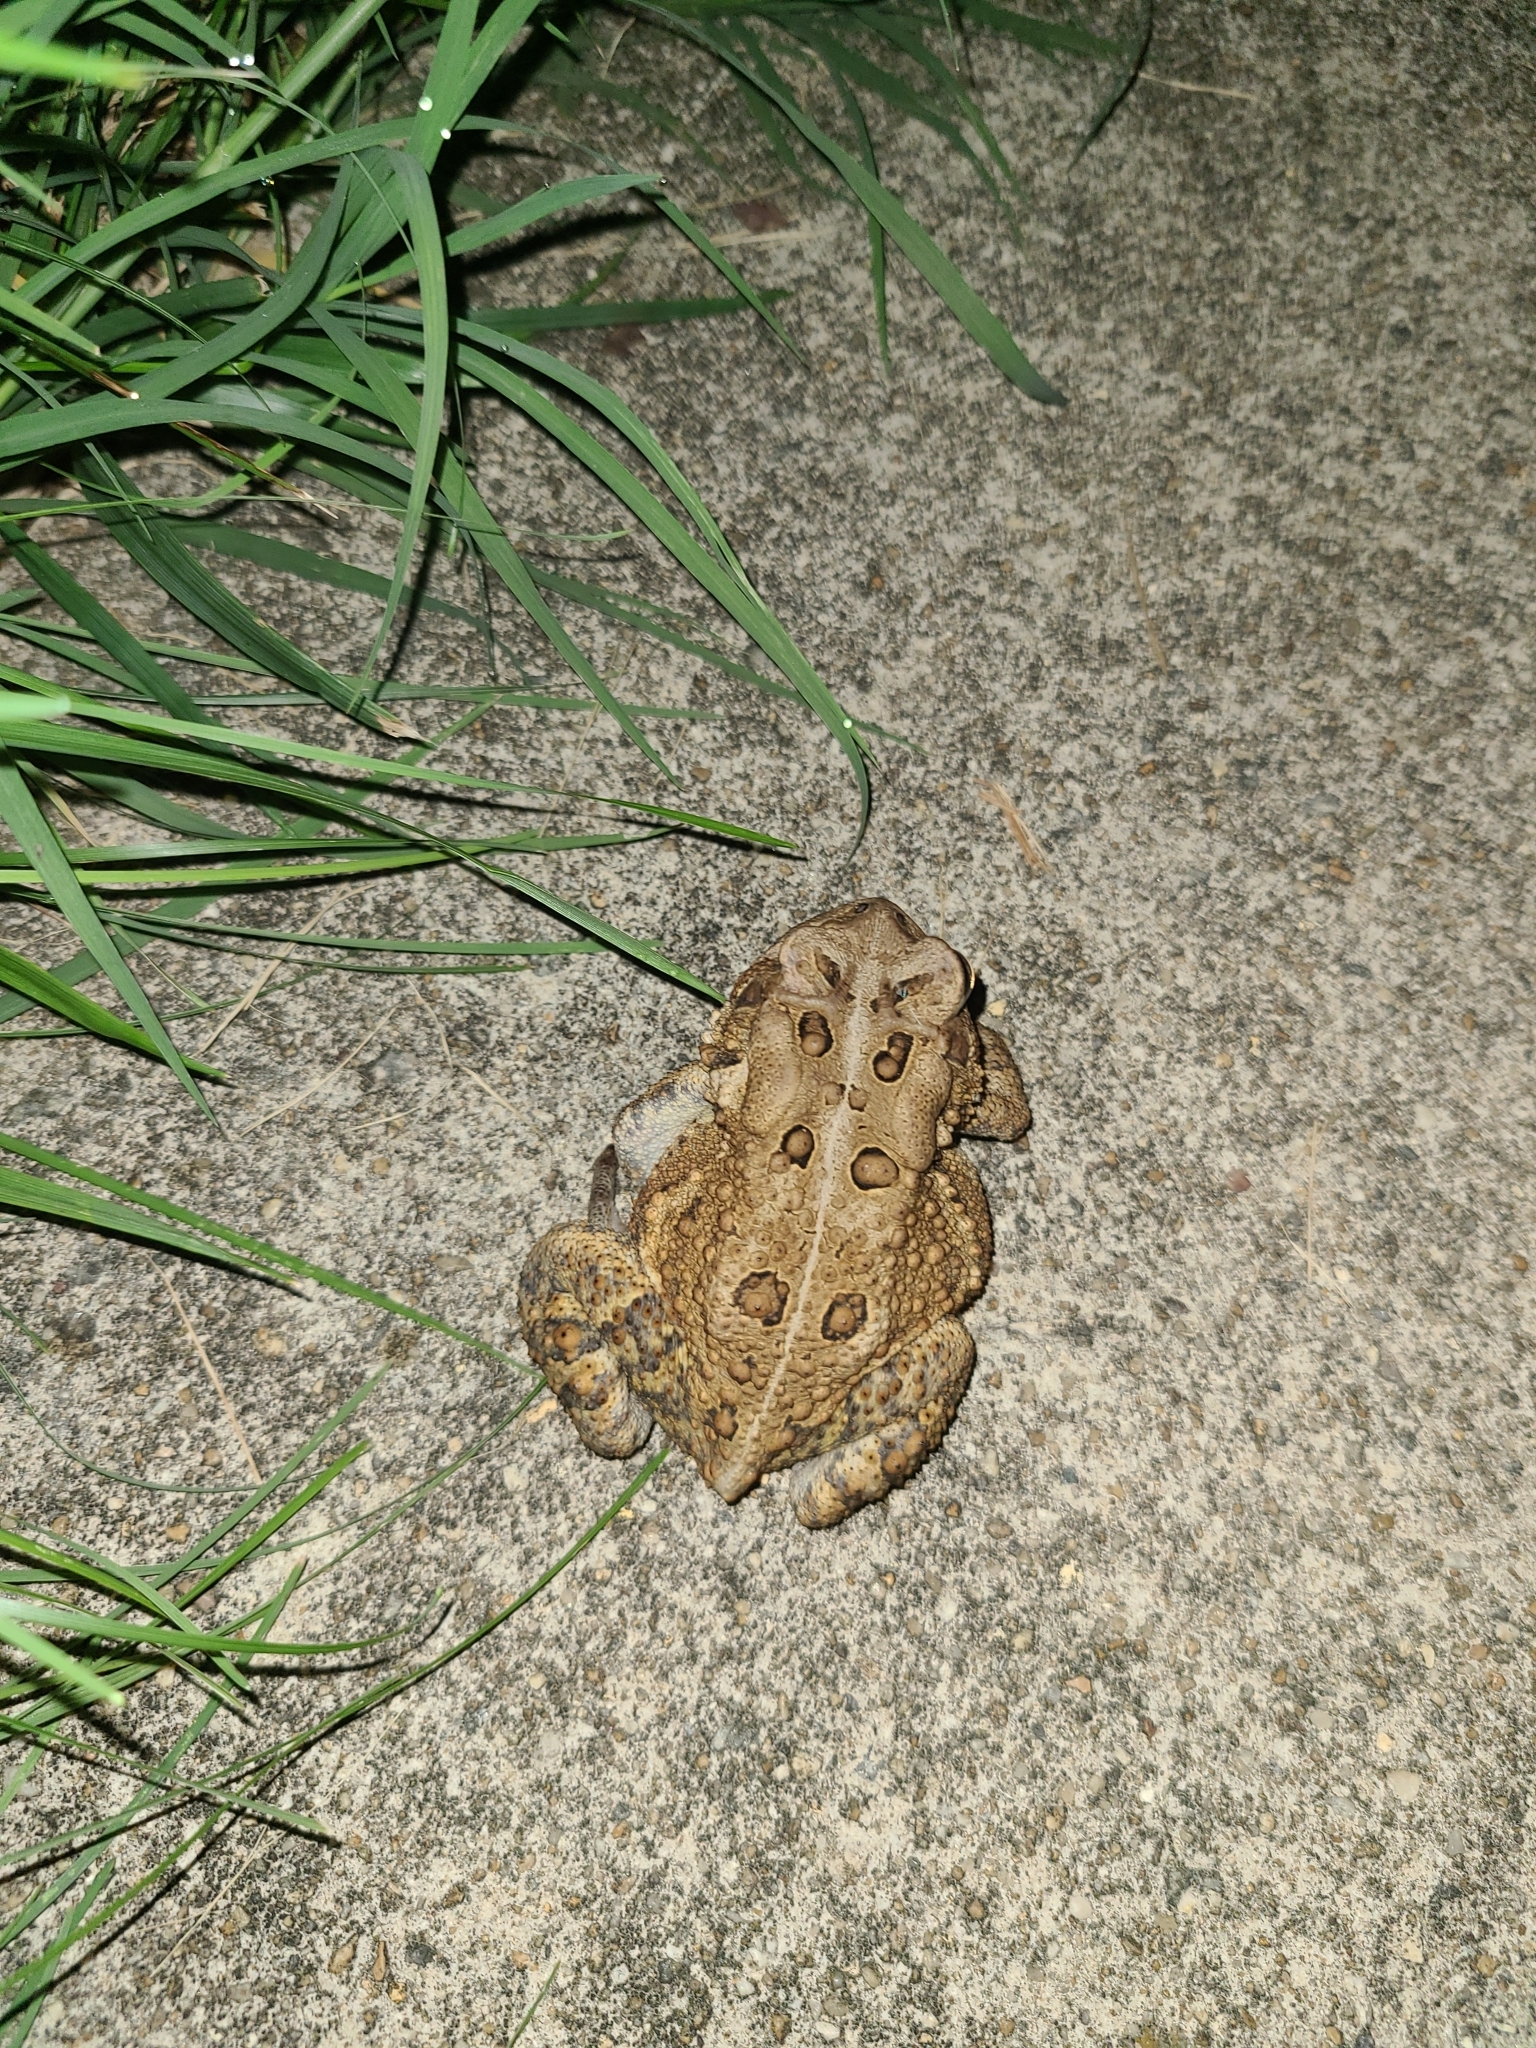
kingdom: Animalia
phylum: Chordata
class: Amphibia
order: Anura
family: Bufonidae
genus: Anaxyrus
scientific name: Anaxyrus americanus
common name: American toad
